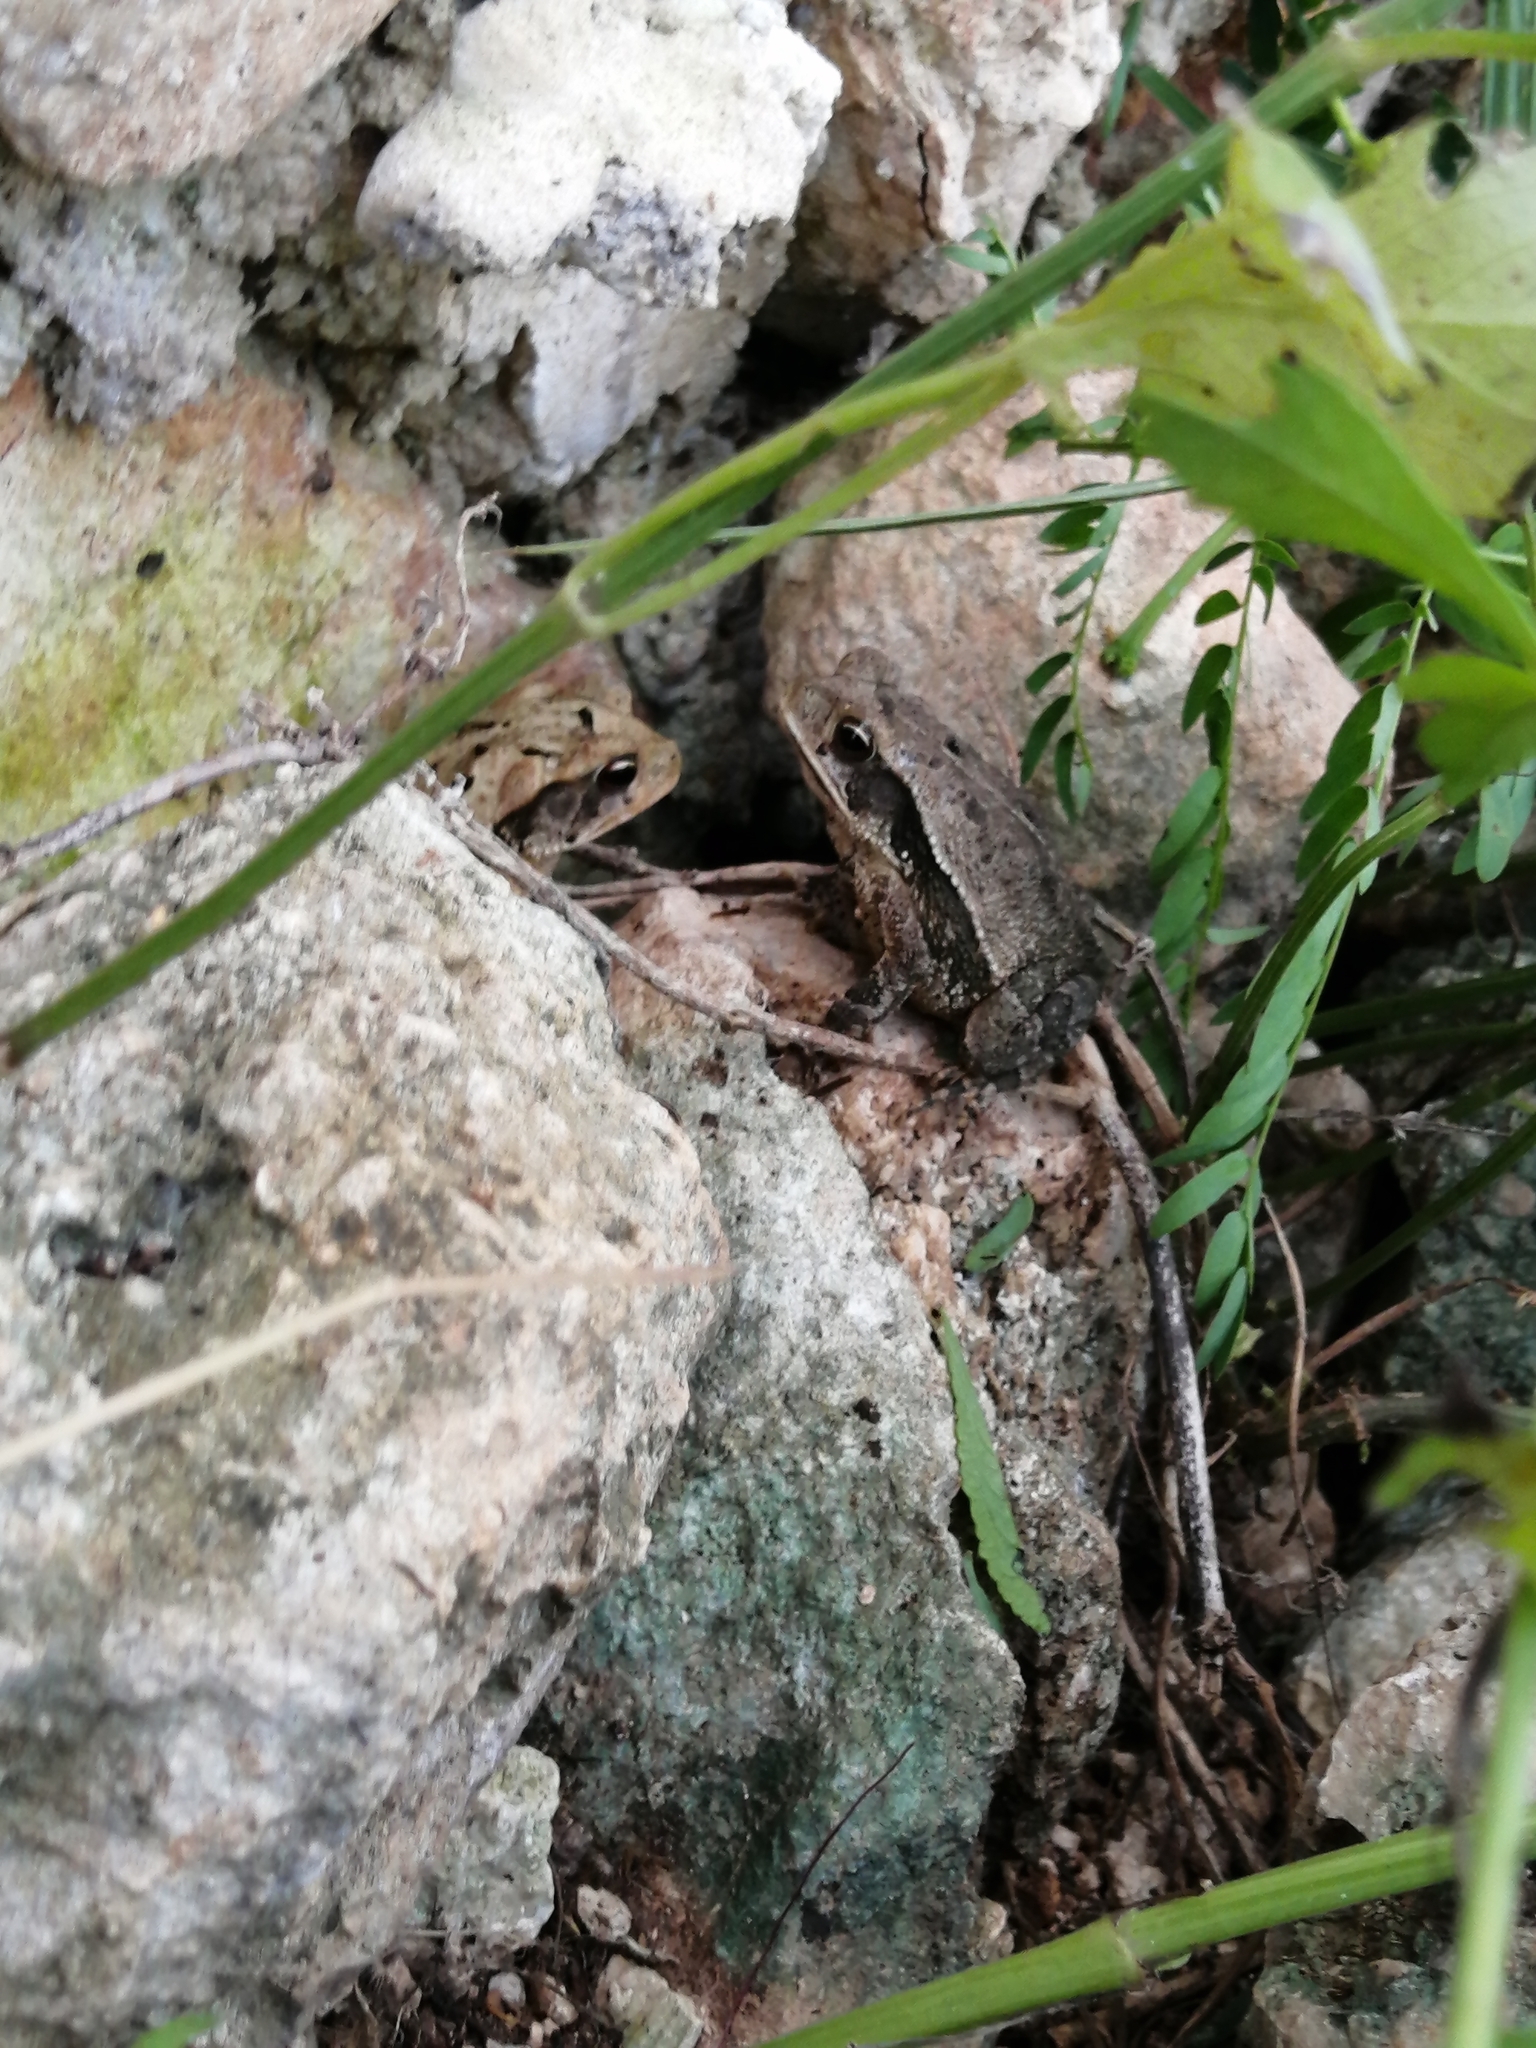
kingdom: Animalia
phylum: Chordata
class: Amphibia
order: Anura
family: Bufonidae
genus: Incilius
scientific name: Incilius valliceps
